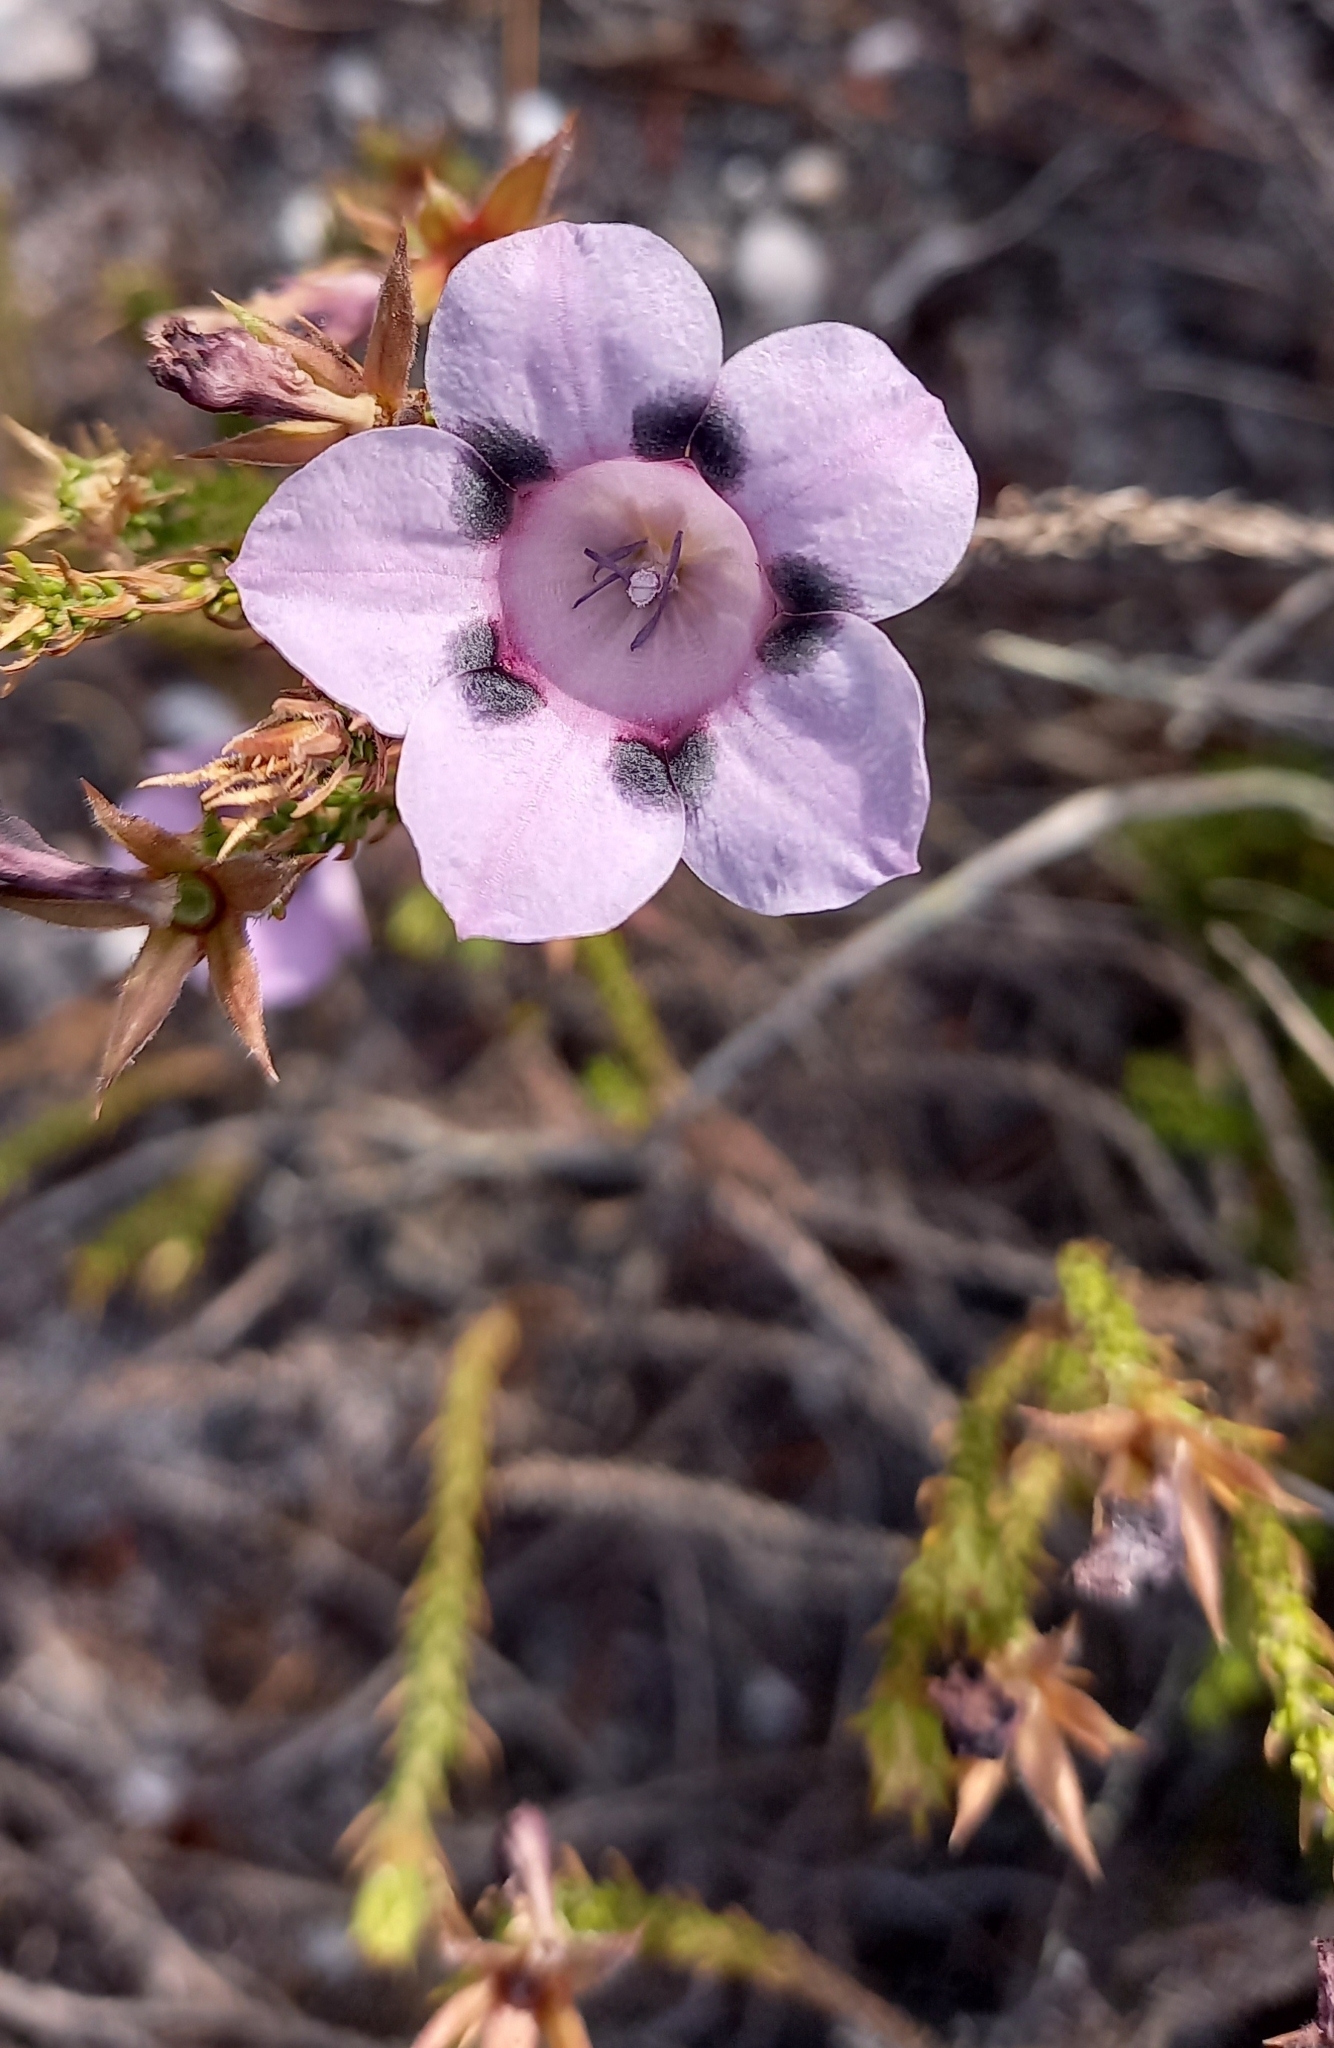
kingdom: Plantae
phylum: Tracheophyta
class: Magnoliopsida
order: Asterales
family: Campanulaceae
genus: Roella
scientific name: Roella maculata
